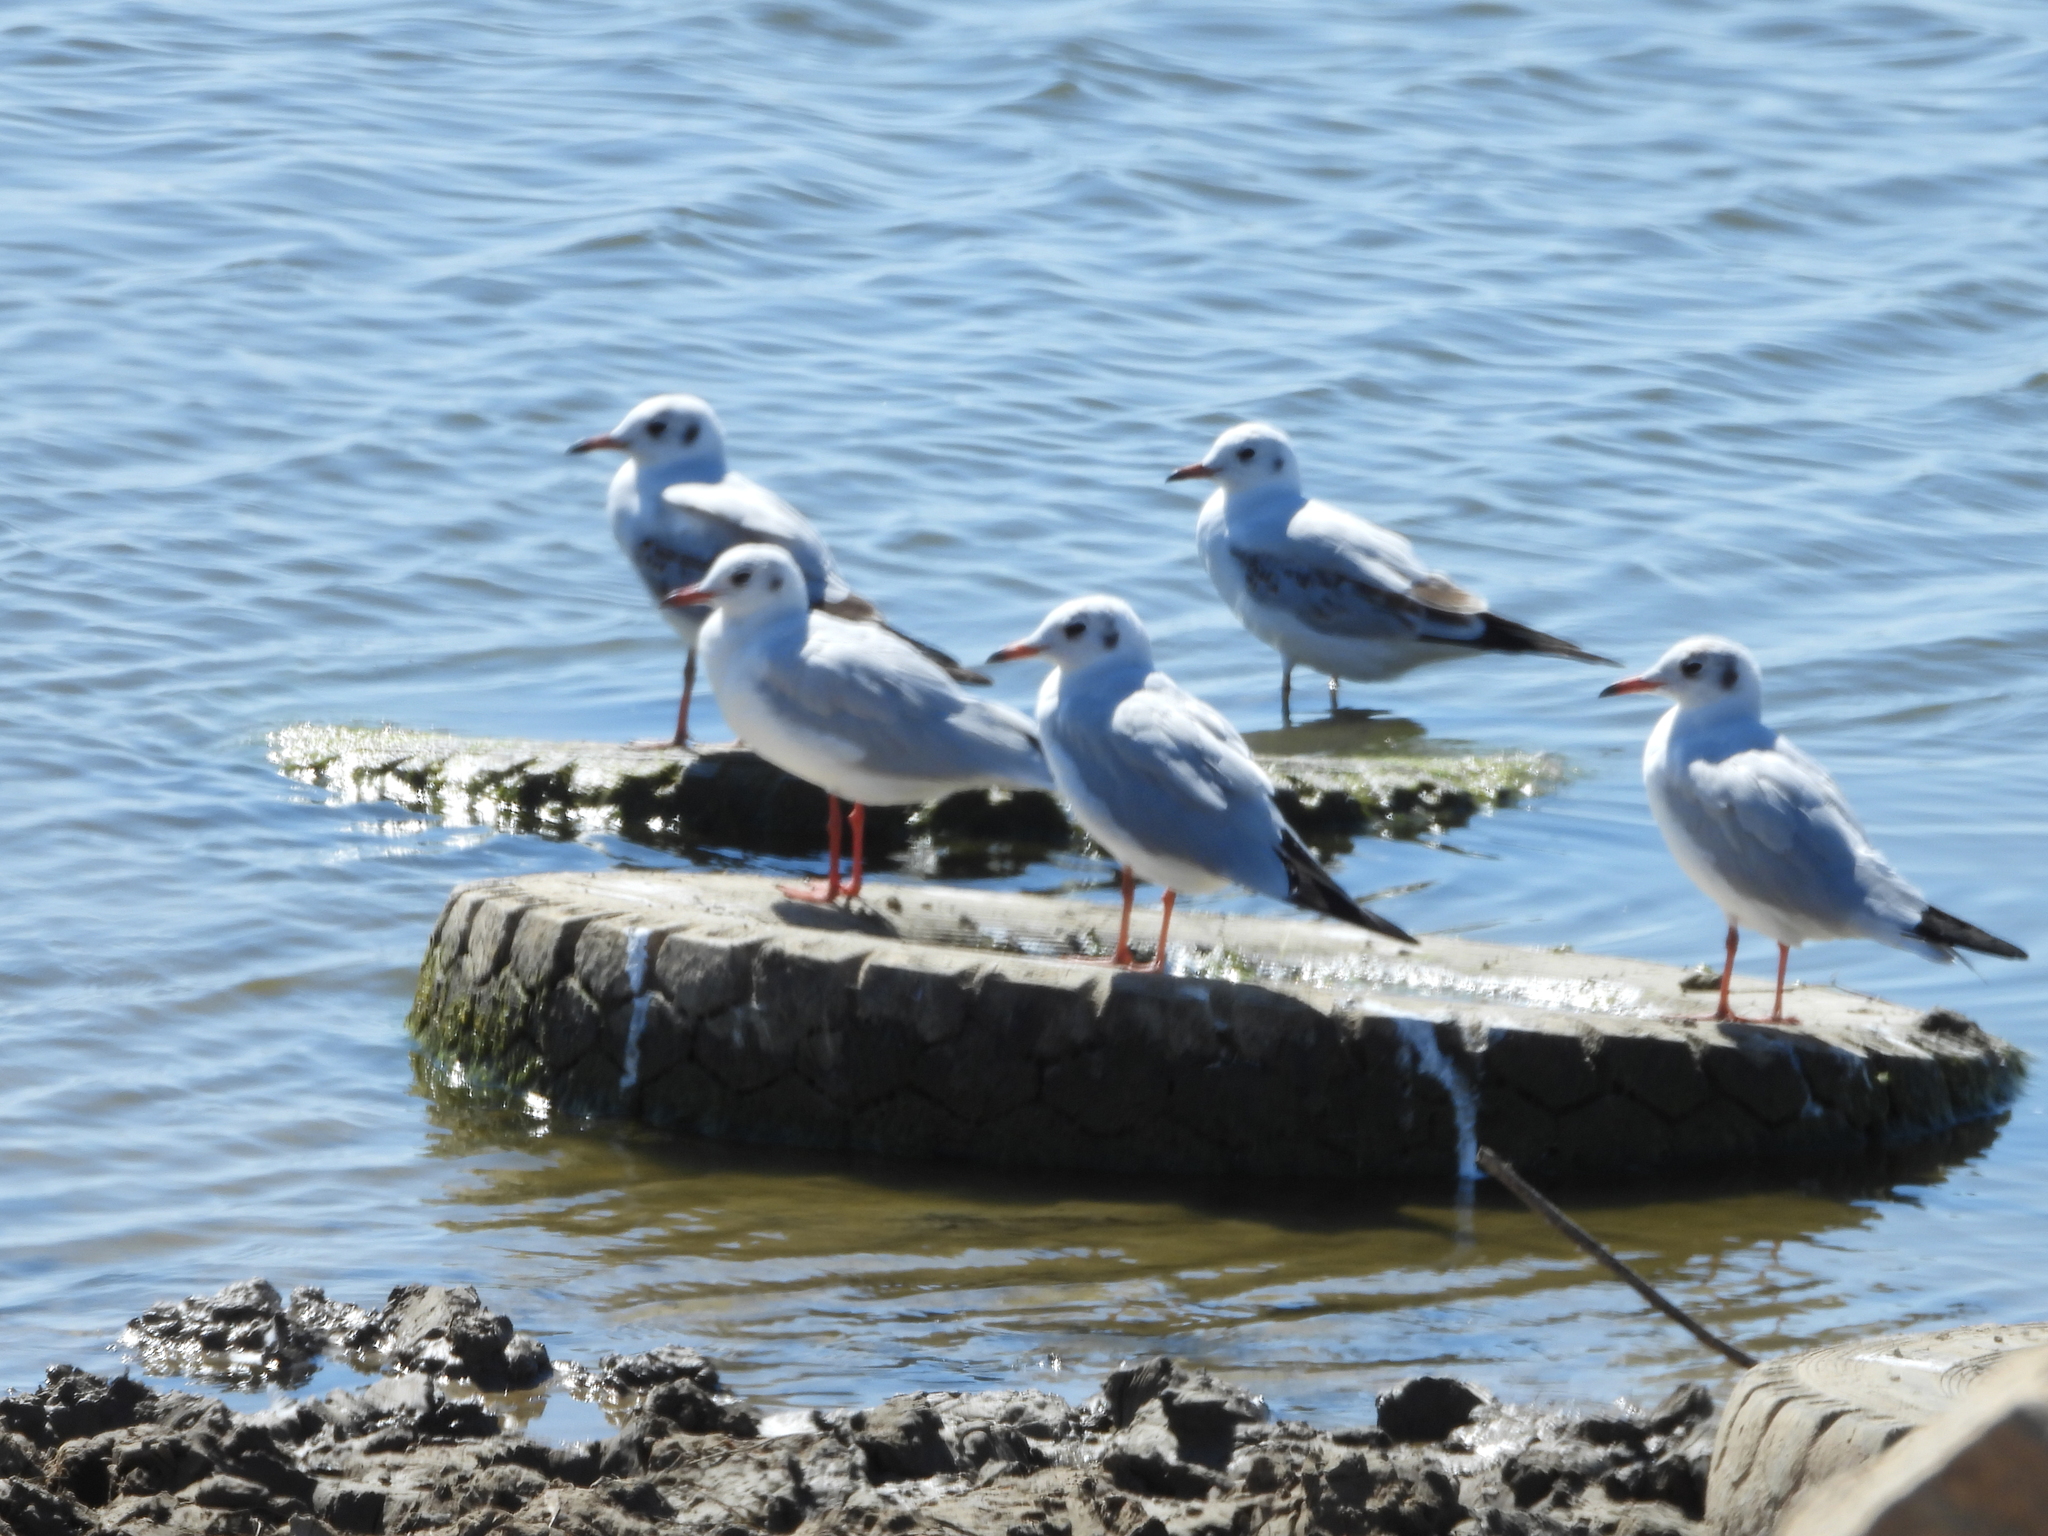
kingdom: Animalia
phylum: Chordata
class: Aves
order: Charadriiformes
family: Laridae
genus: Chroicocephalus
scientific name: Chroicocephalus ridibundus
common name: Black-headed gull
